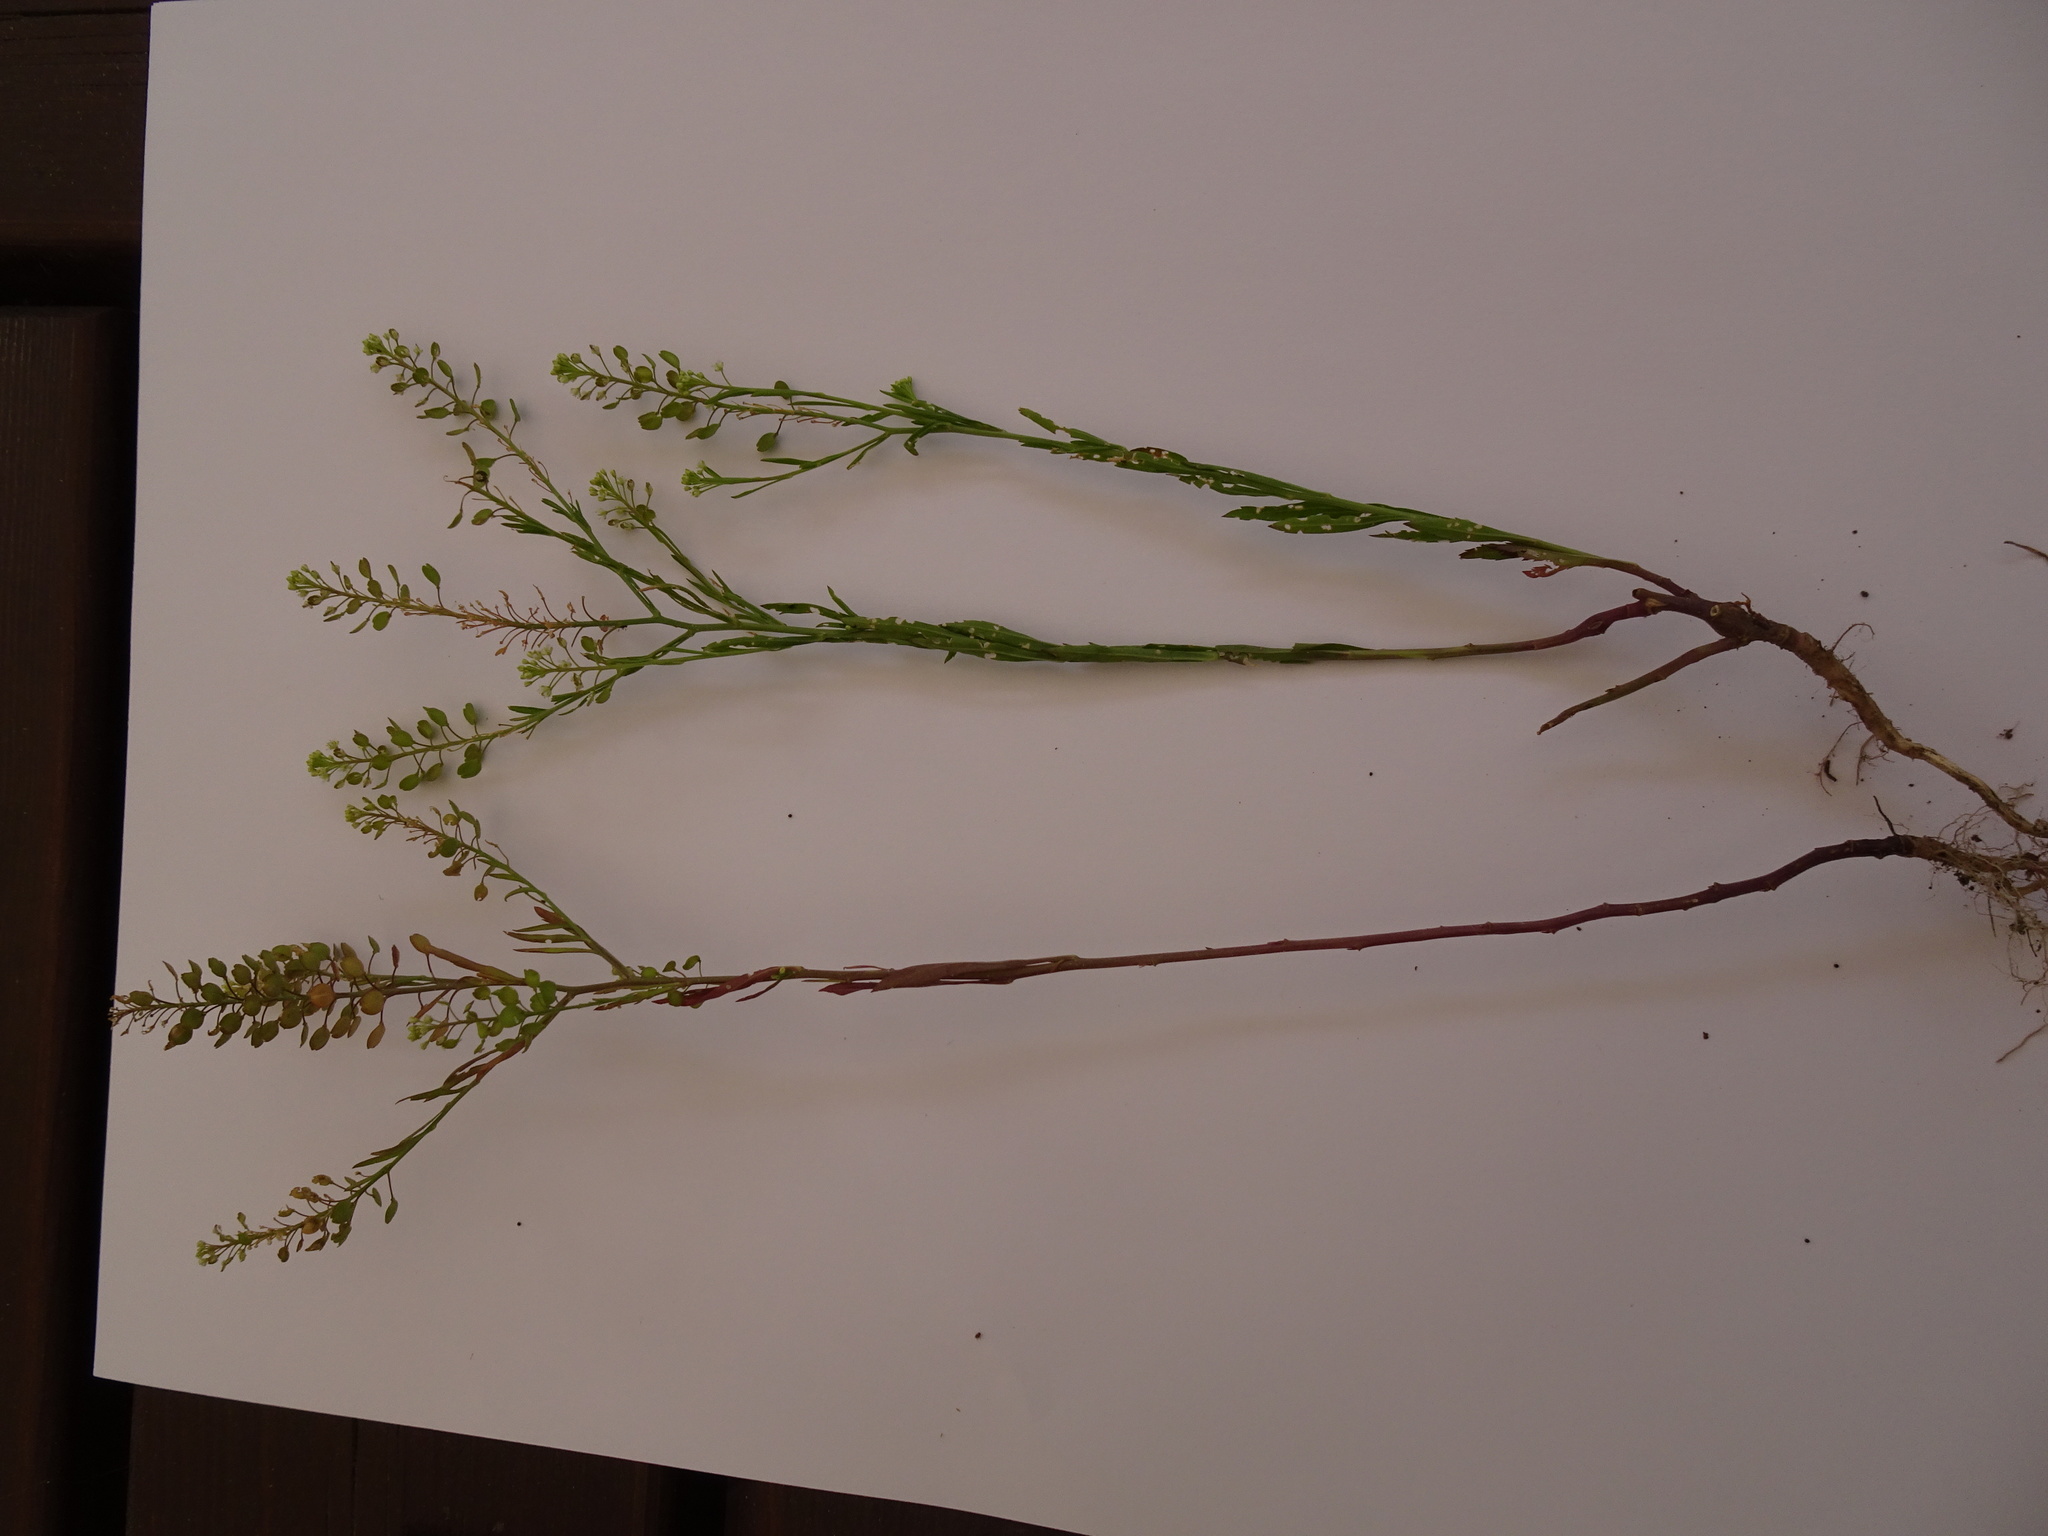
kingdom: Plantae
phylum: Tracheophyta
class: Magnoliopsida
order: Brassicales
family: Brassicaceae
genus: Lepidium
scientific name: Lepidium virginicum
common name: Least pepperwort
